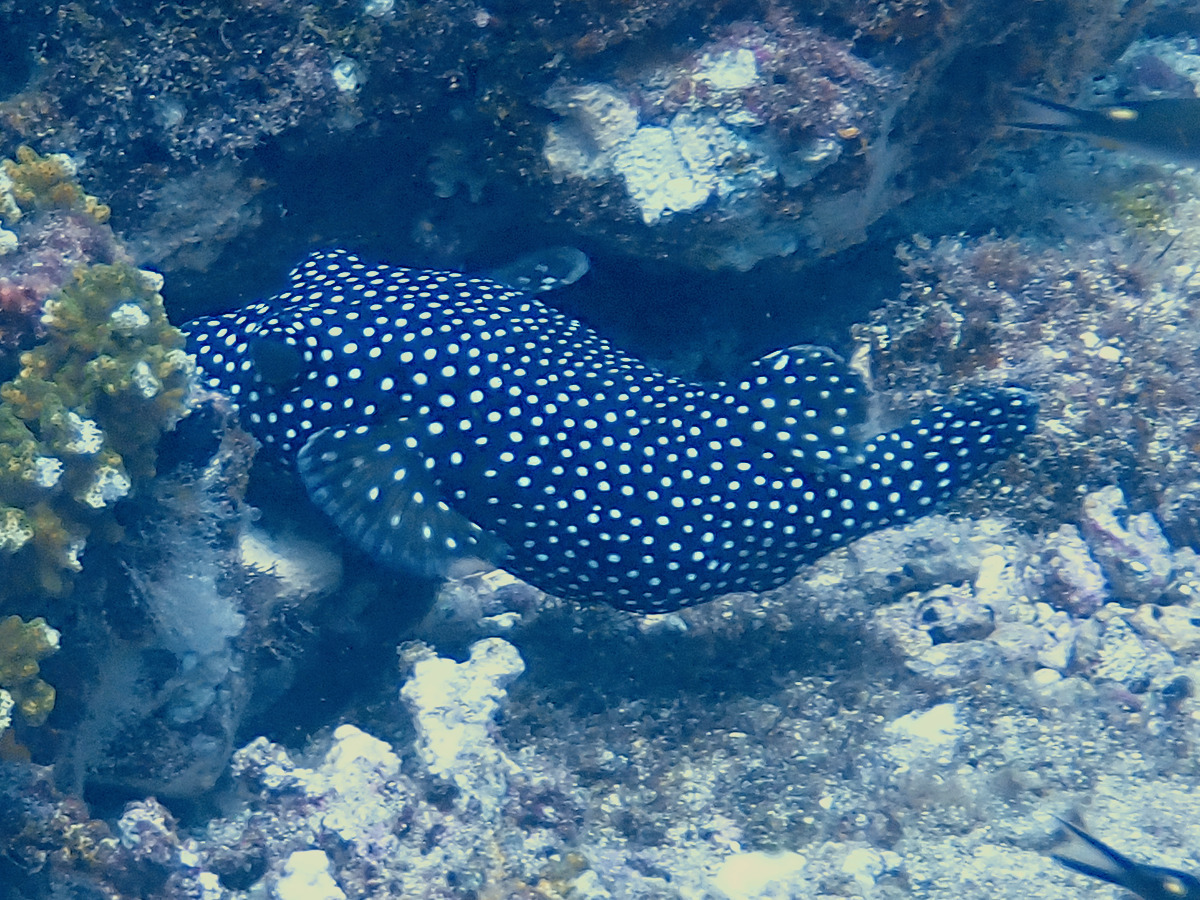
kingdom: Animalia
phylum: Chordata
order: Tetraodontiformes
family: Tetraodontidae
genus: Arothron
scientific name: Arothron meleagris
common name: Guinea-fowl pufferfish
